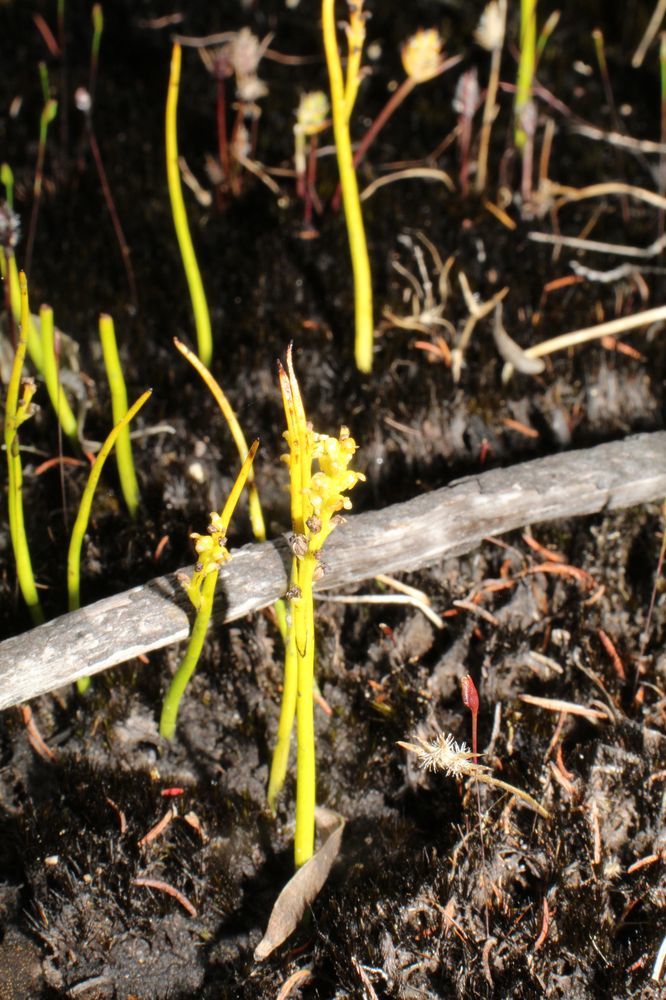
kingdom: Plantae
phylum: Tracheophyta
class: Liliopsida
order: Asparagales
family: Orchidaceae
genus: Microtis
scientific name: Microtis atrata
